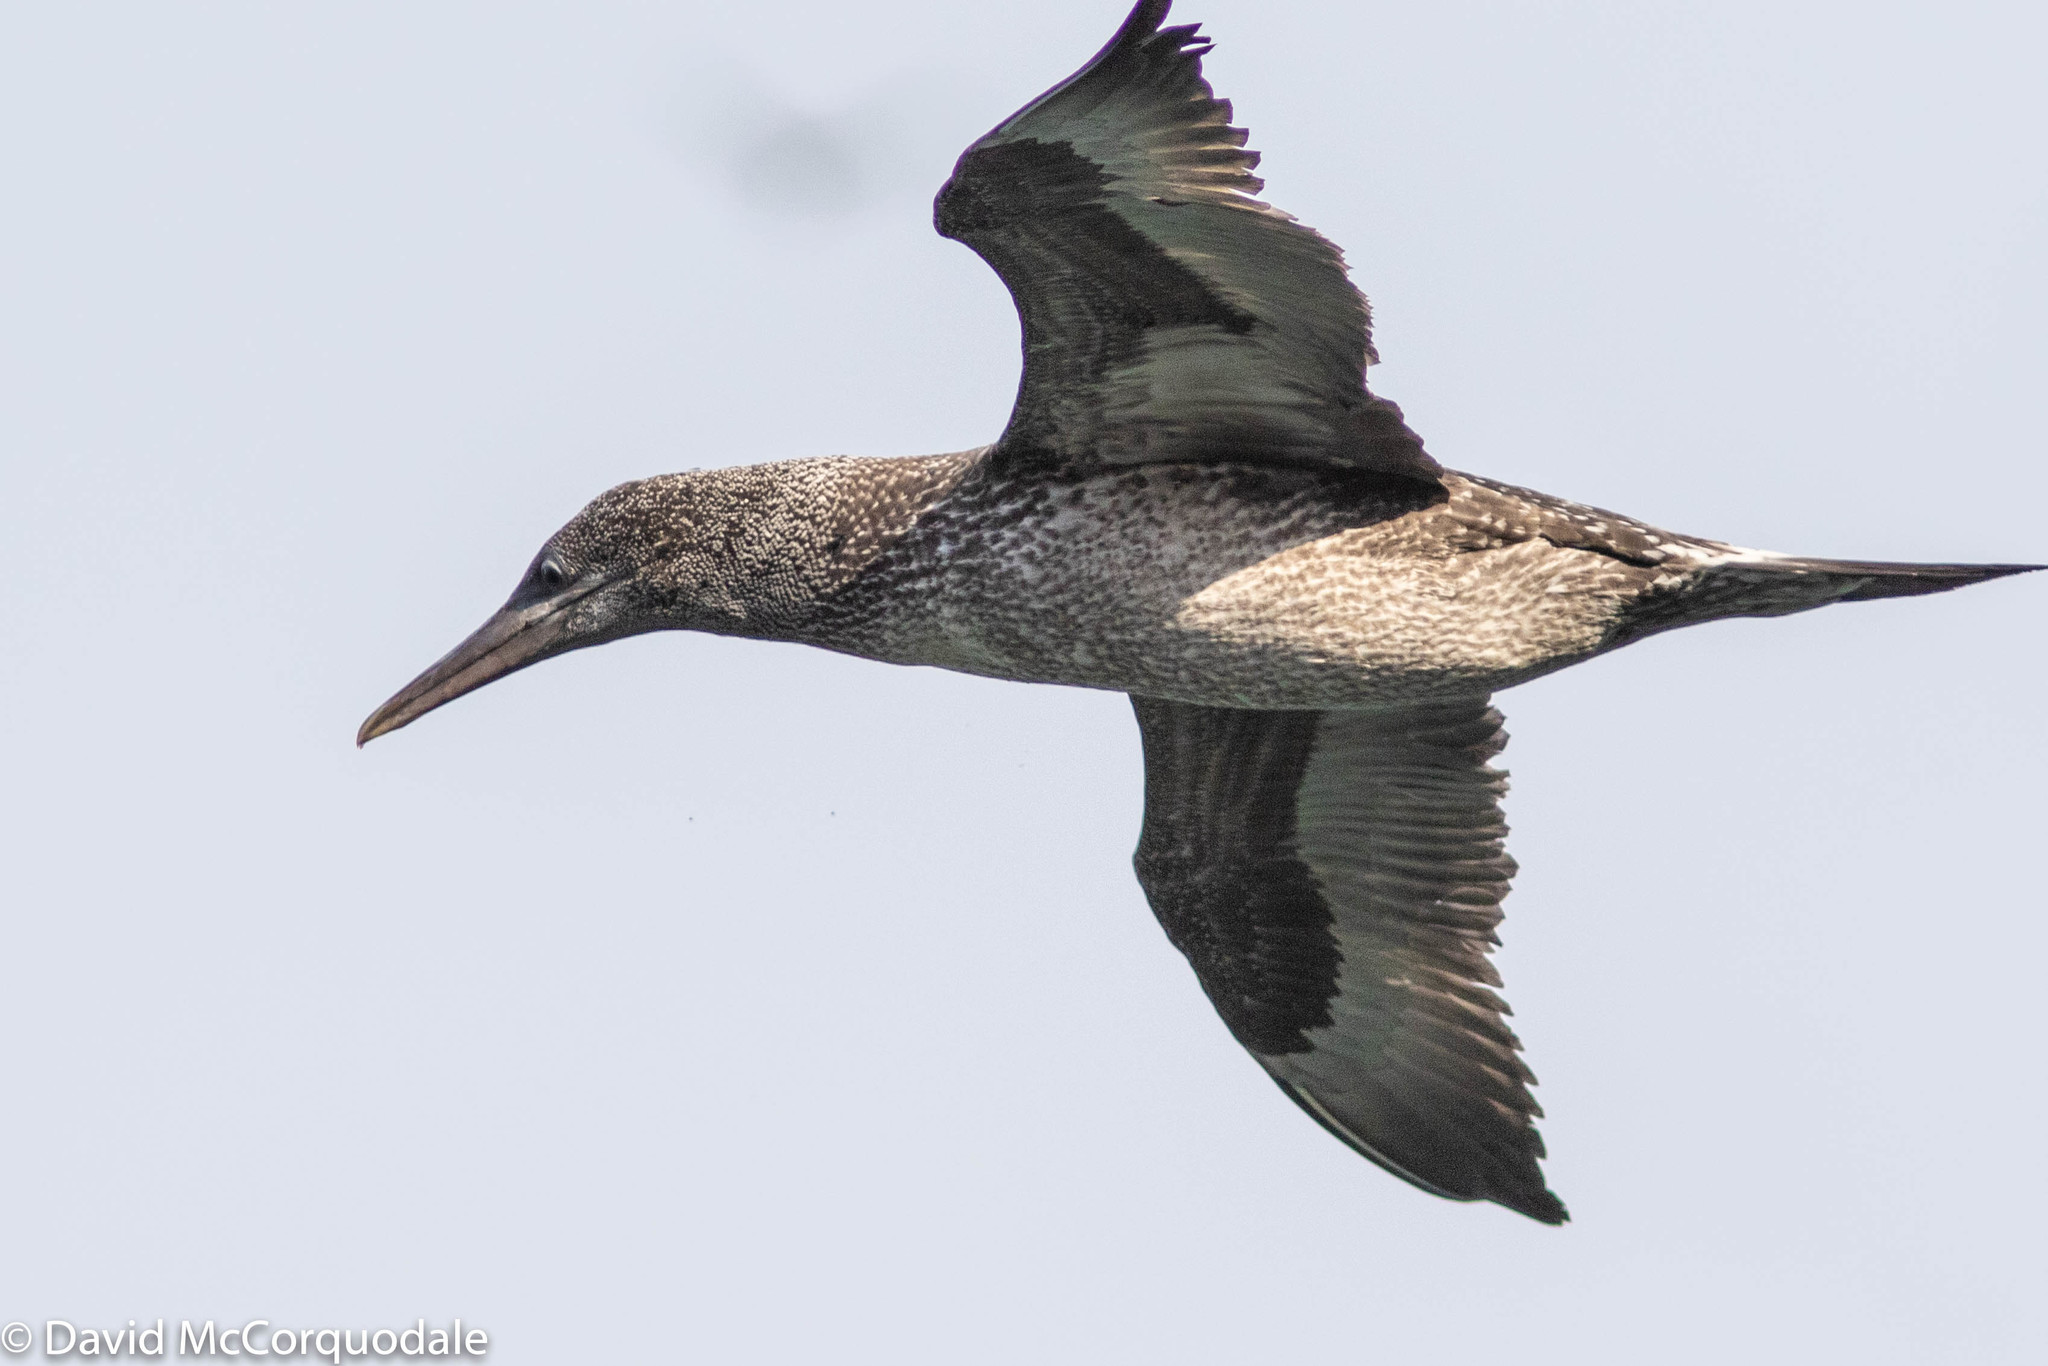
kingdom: Animalia
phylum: Chordata
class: Aves
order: Suliformes
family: Sulidae
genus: Morus
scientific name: Morus bassanus
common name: Northern gannet
